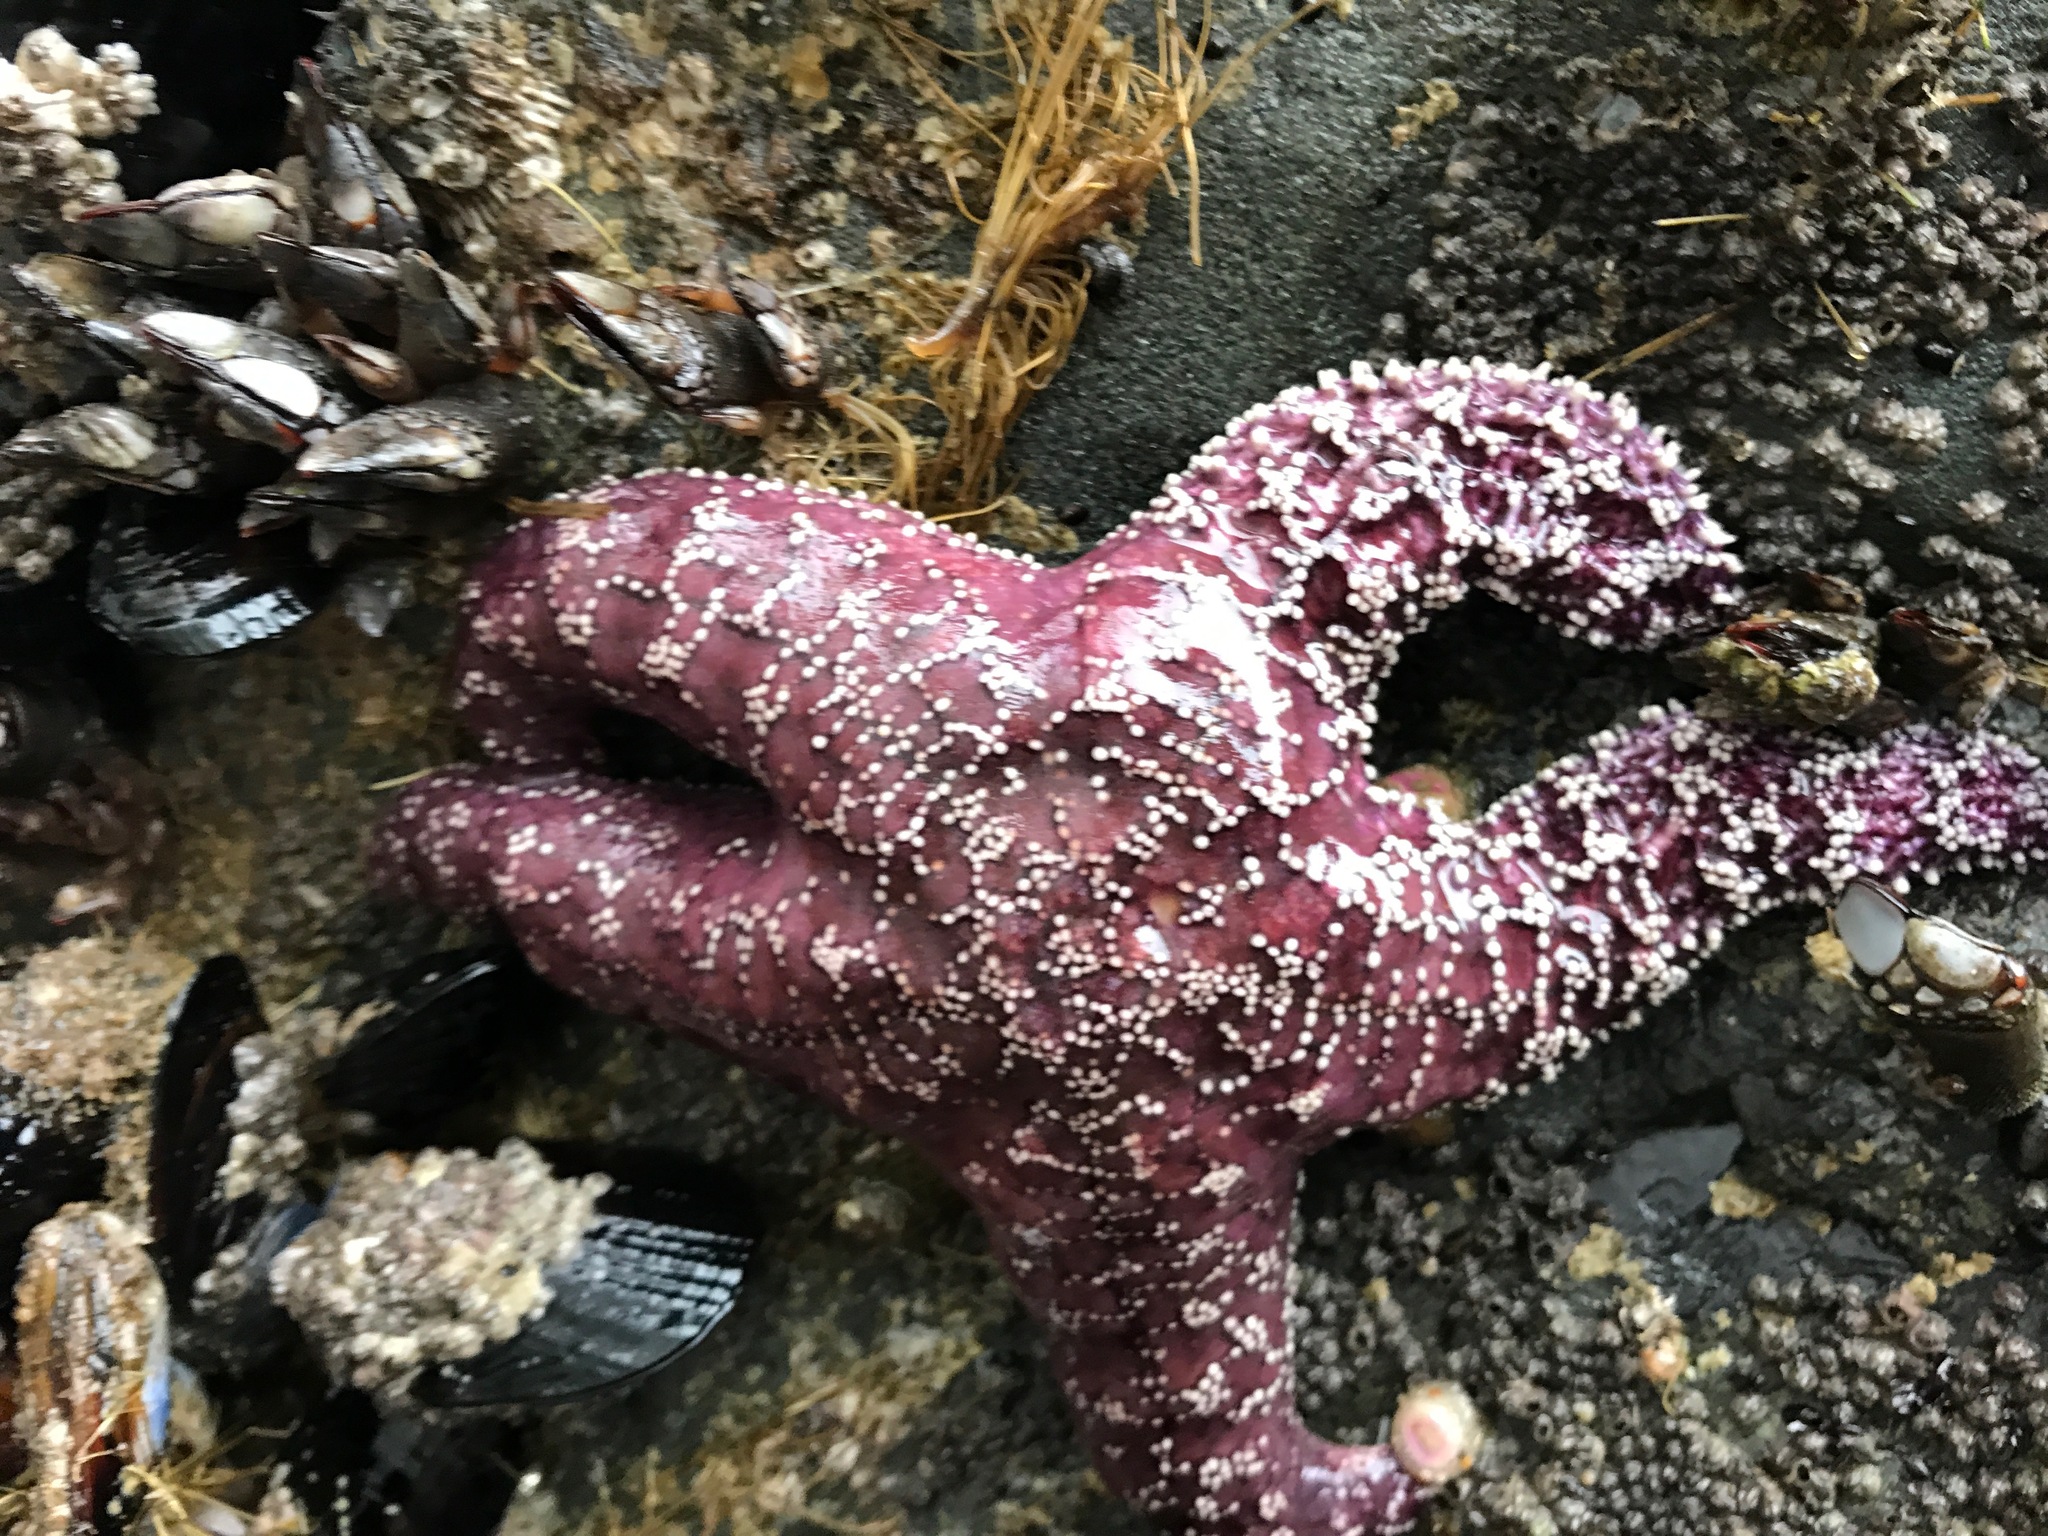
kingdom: Animalia
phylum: Echinodermata
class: Asteroidea
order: Forcipulatida
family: Asteriidae
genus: Pisaster
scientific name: Pisaster ochraceus
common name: Ochre stars
